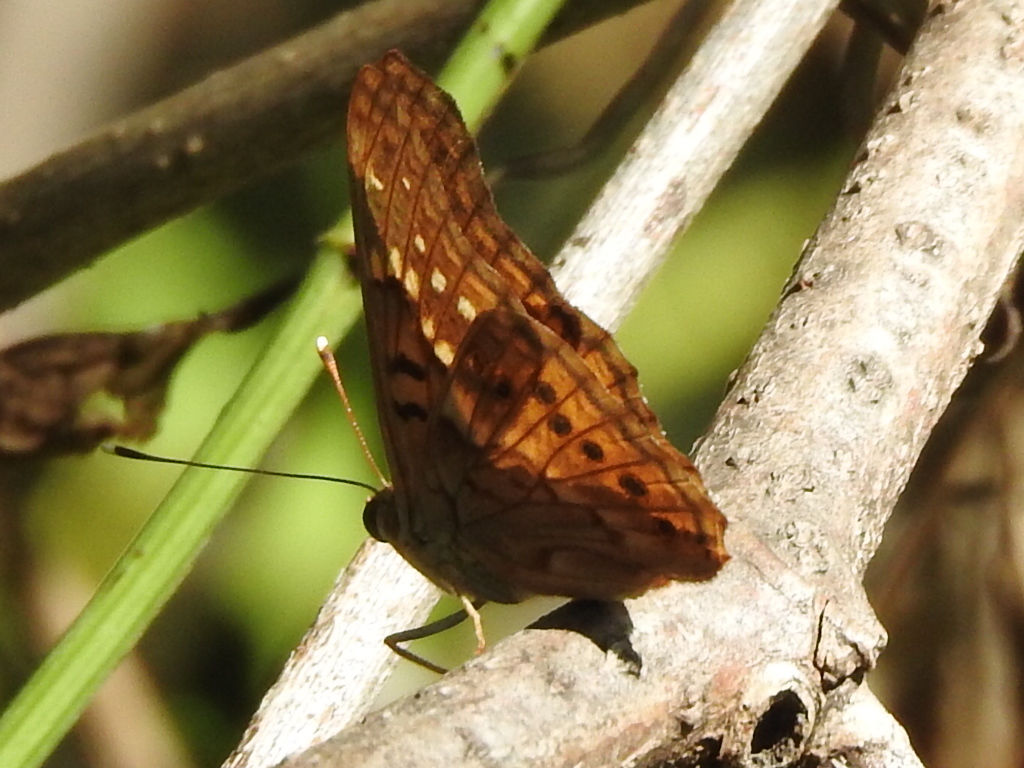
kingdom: Animalia
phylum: Arthropoda
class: Insecta
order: Lepidoptera
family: Nymphalidae
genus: Asterocampa
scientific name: Asterocampa clyton
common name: Tawny emperor
